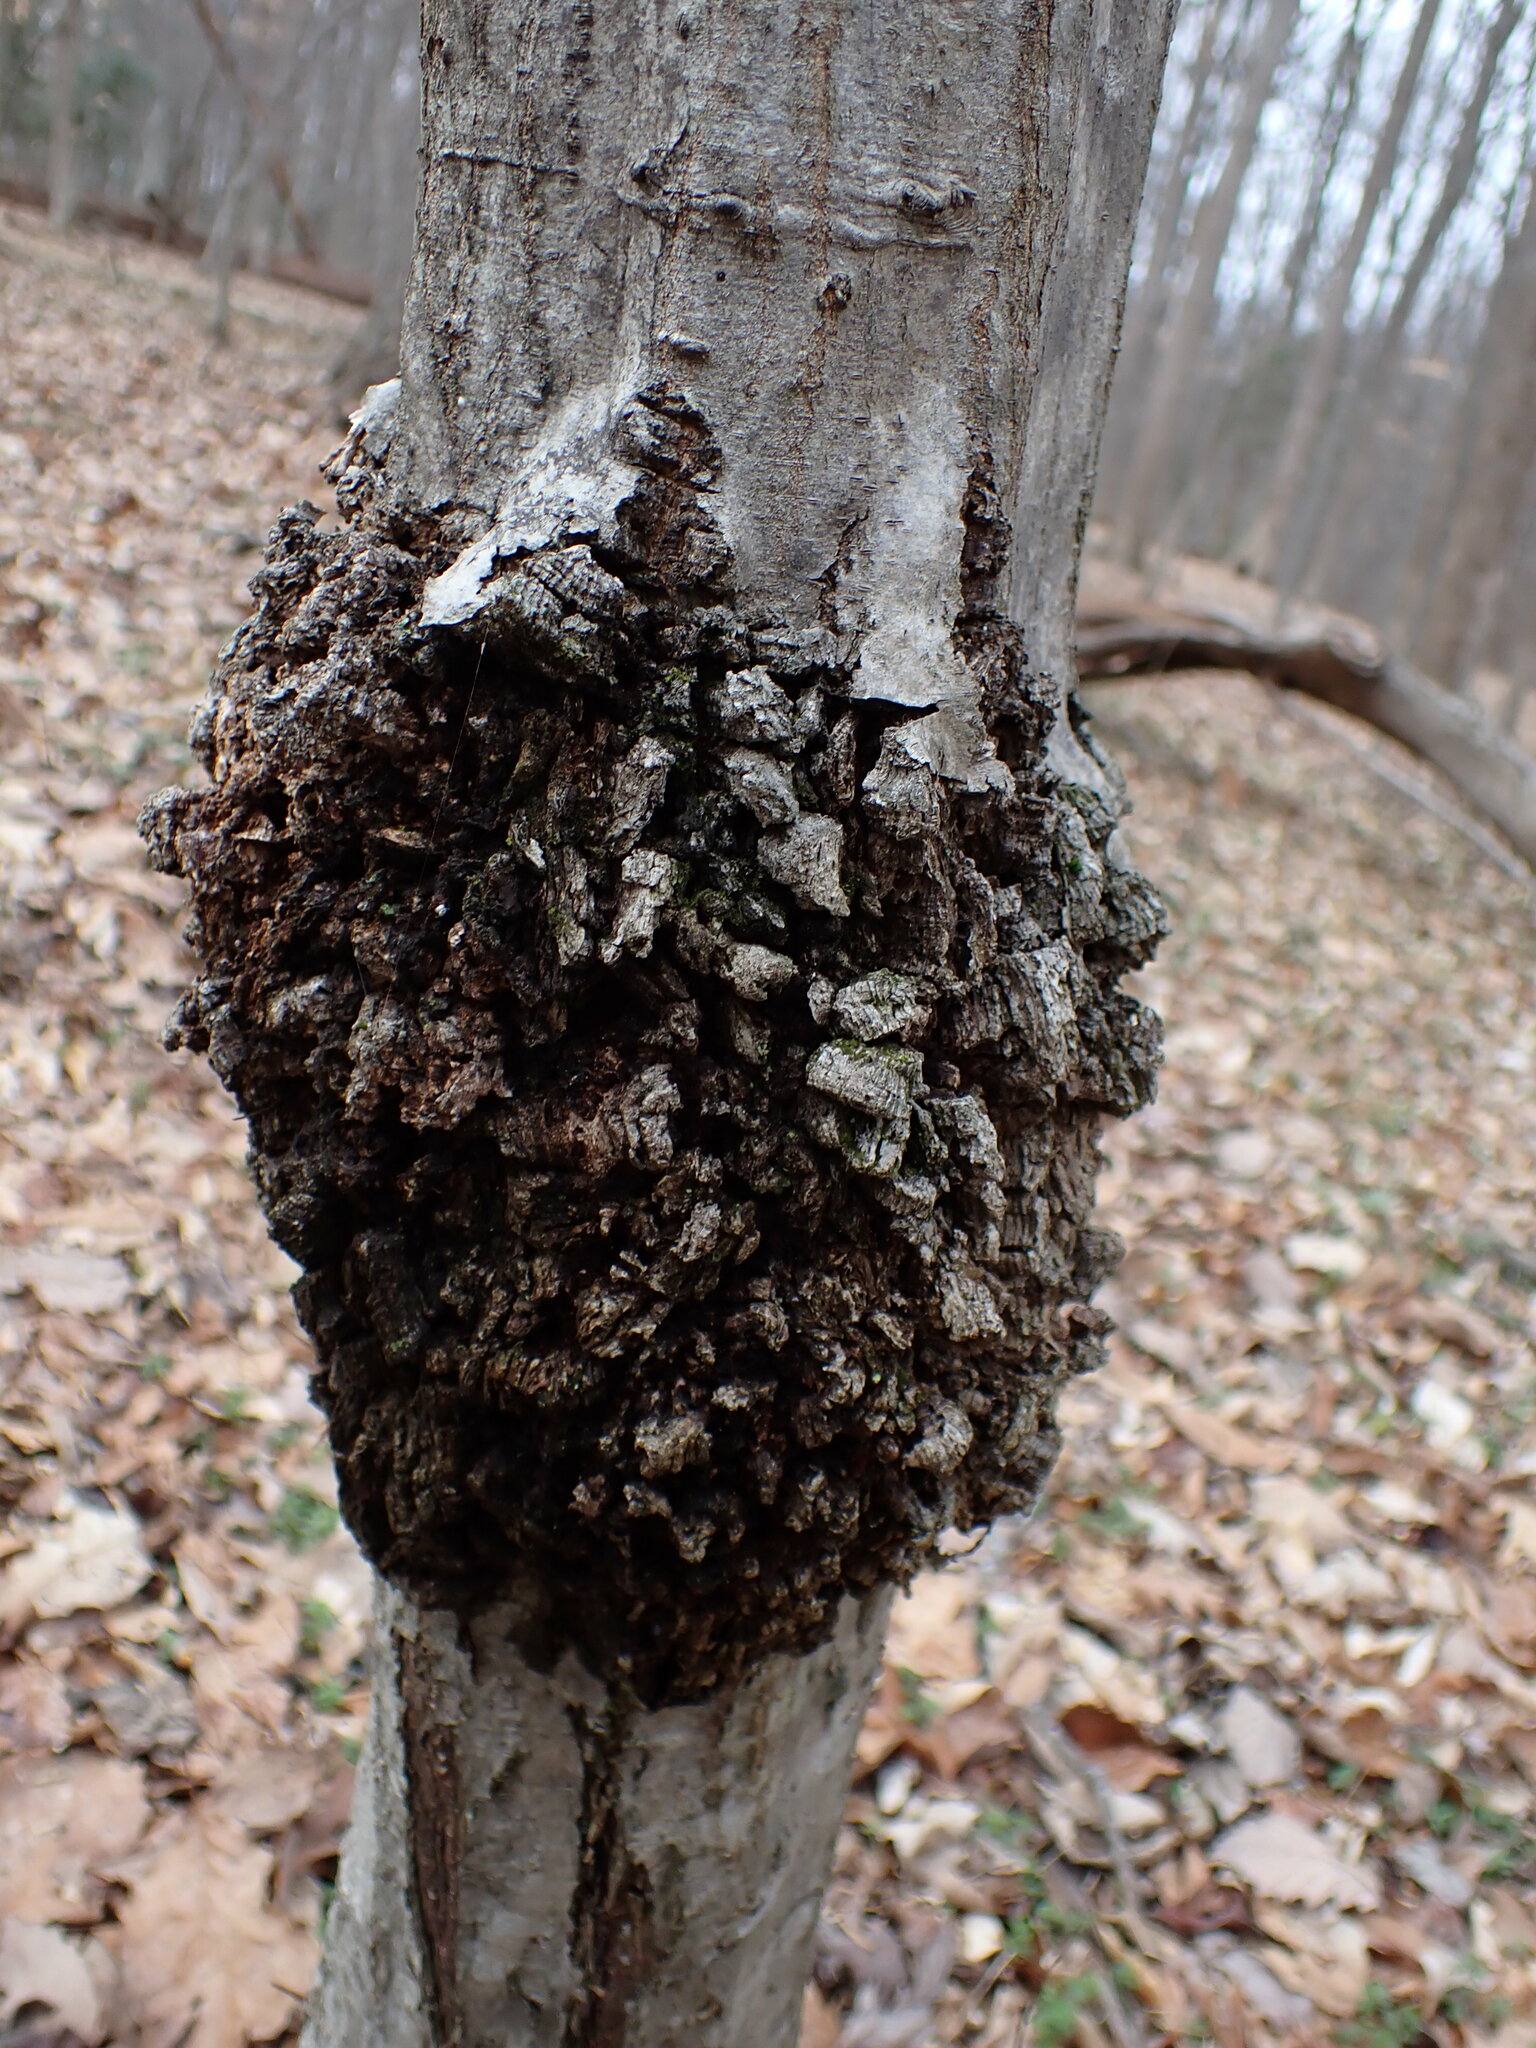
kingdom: Bacteria
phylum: Proteobacteria
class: Alphaproteobacteria
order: Rhizobiales
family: Rhizobiaceae
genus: Rhizobium
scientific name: Rhizobium Agrobacterium radiobacter
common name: Bacterial crown gall
